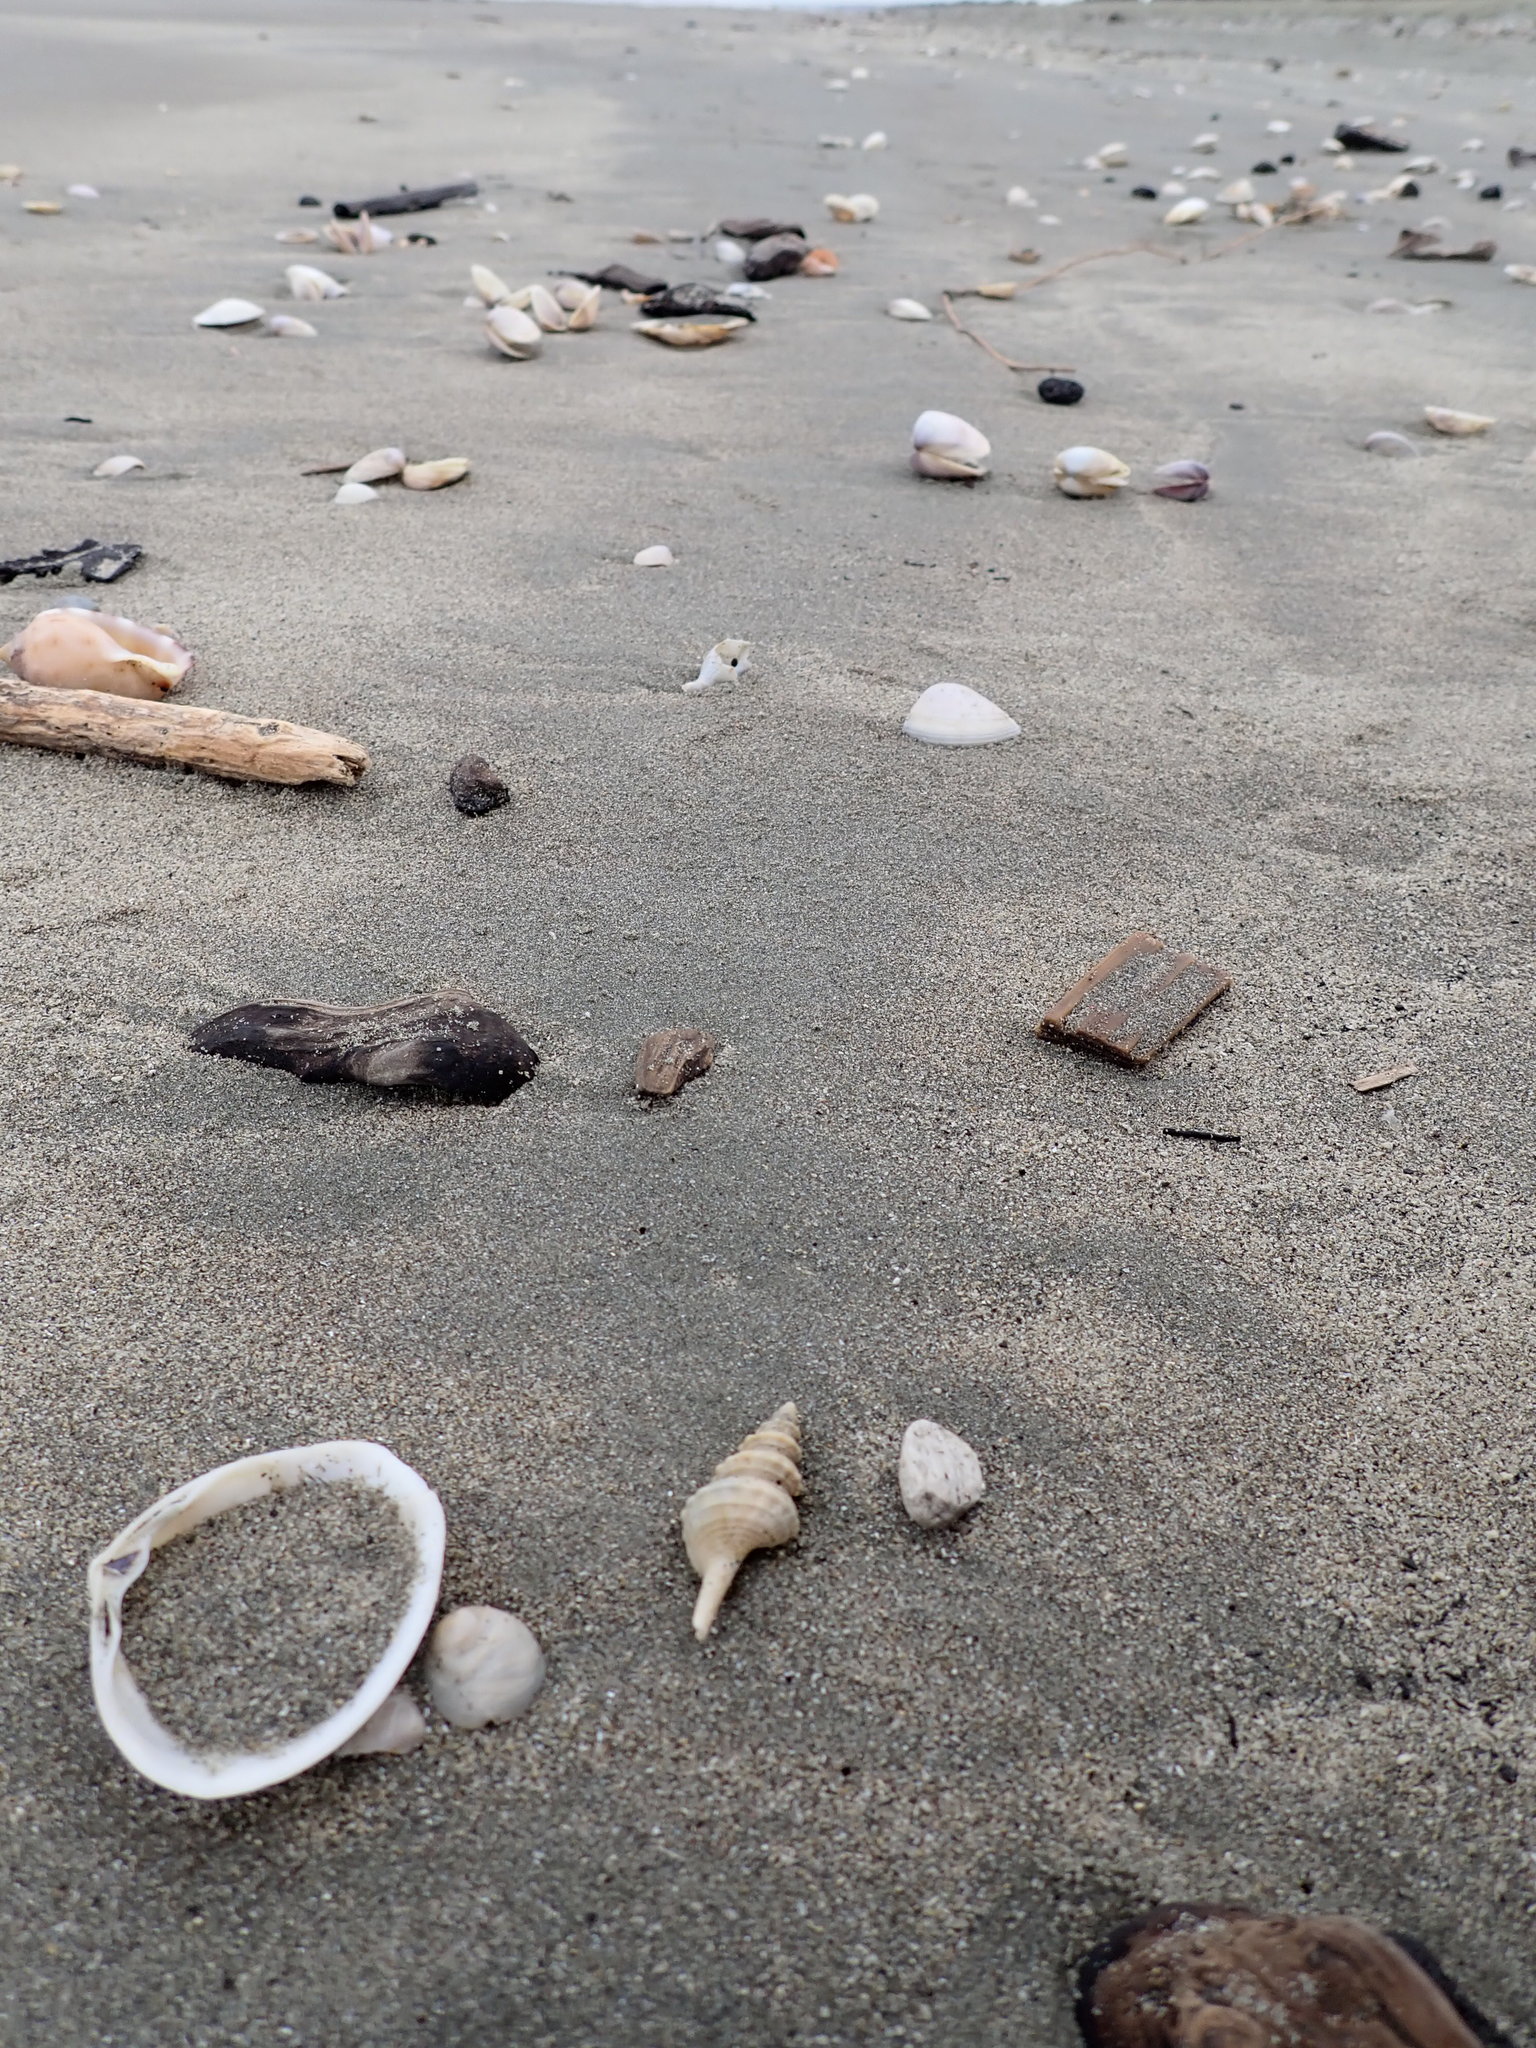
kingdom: Animalia
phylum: Mollusca
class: Gastropoda
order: Neogastropoda
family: Columbariidae
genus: Coluzea
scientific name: Coluzea spiralis
